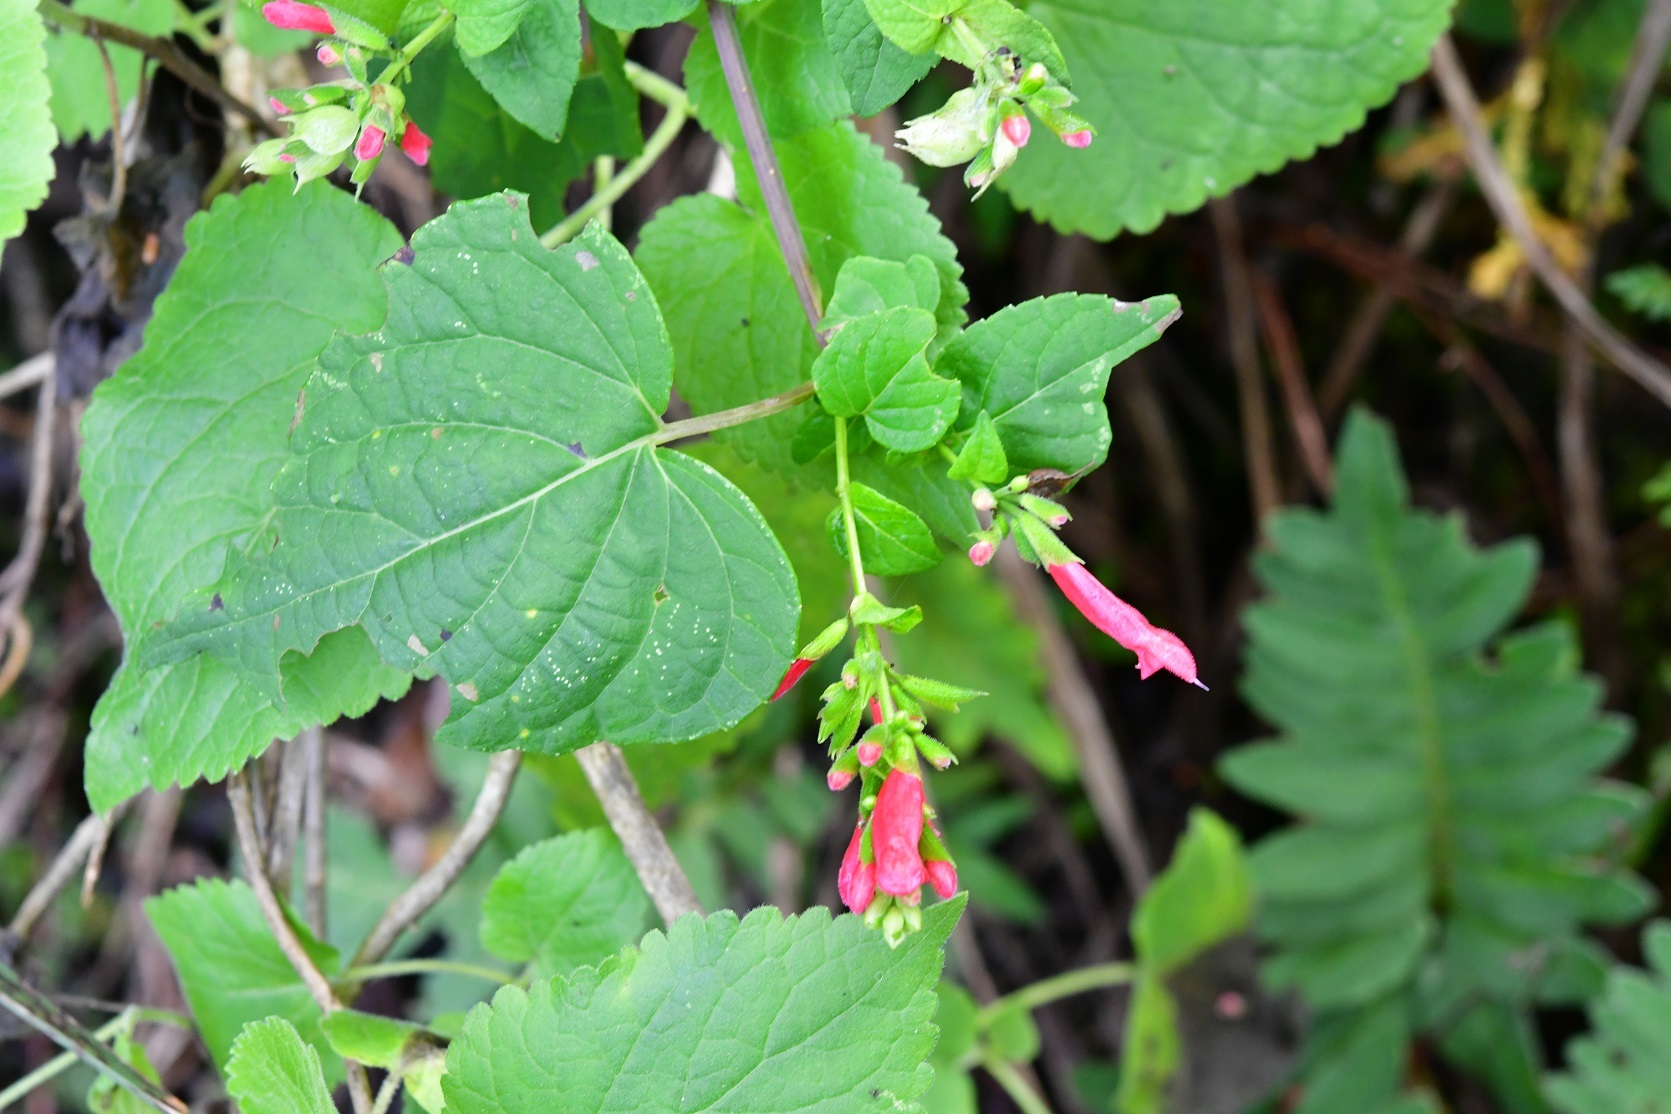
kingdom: Plantae
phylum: Tracheophyta
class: Magnoliopsida
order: Lamiales
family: Lamiaceae
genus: Salvia
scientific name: Salvia holwayi
